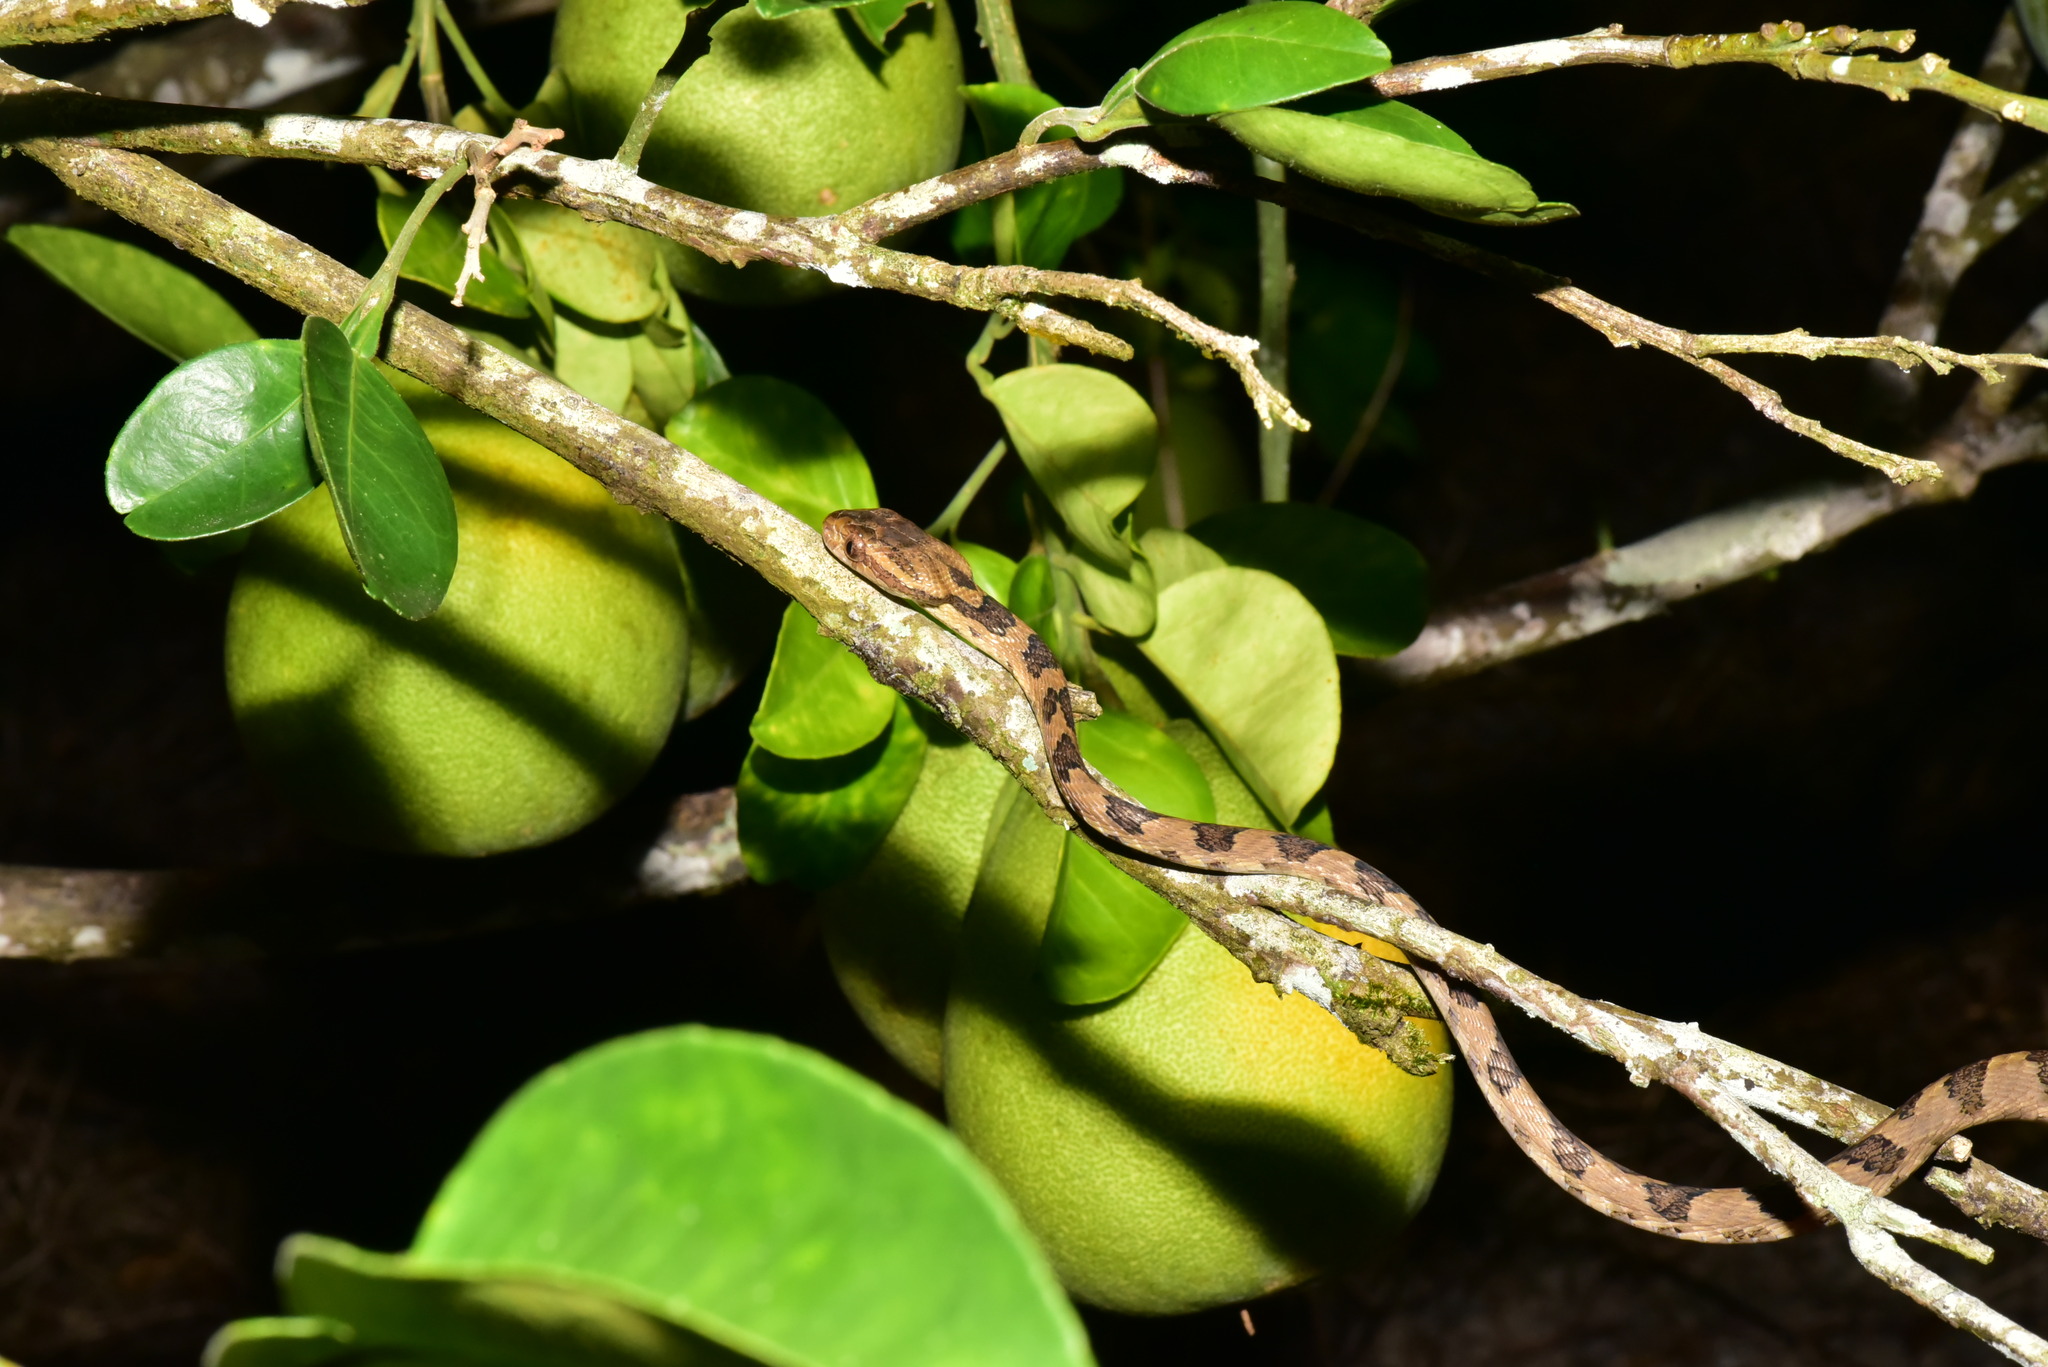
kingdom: Animalia
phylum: Chordata
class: Squamata
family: Colubridae
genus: Boiga
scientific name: Boiga kraepelini
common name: Kelung cat snake
